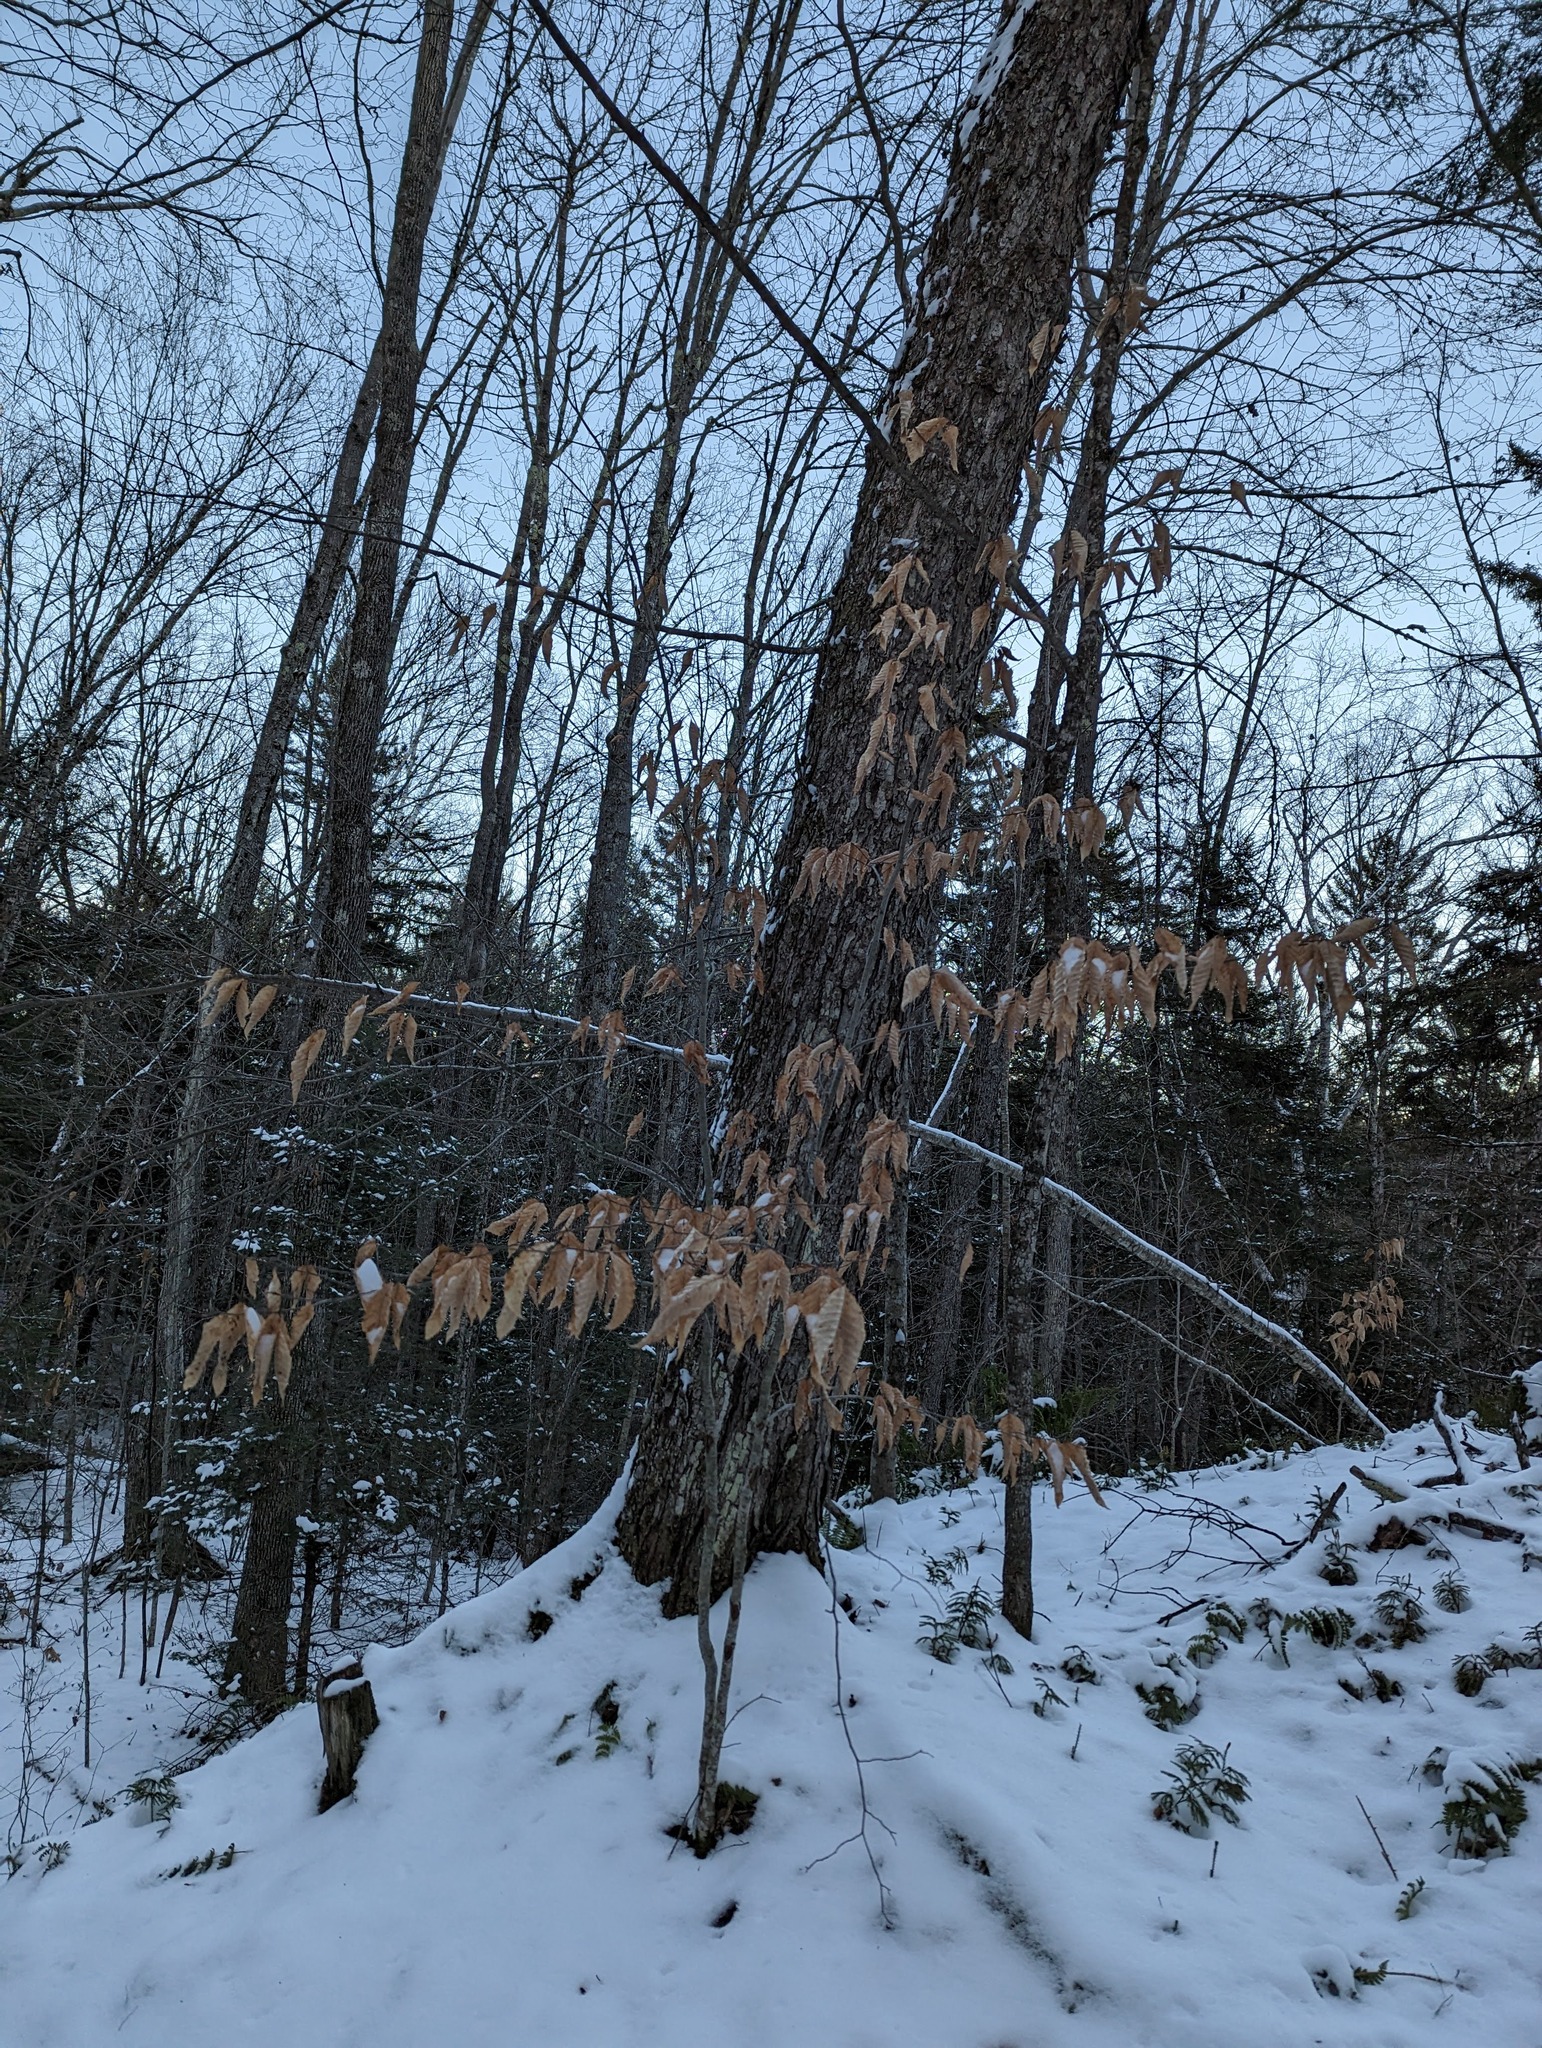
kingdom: Plantae
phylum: Tracheophyta
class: Magnoliopsida
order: Fagales
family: Fagaceae
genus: Fagus
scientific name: Fagus grandifolia
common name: American beech
